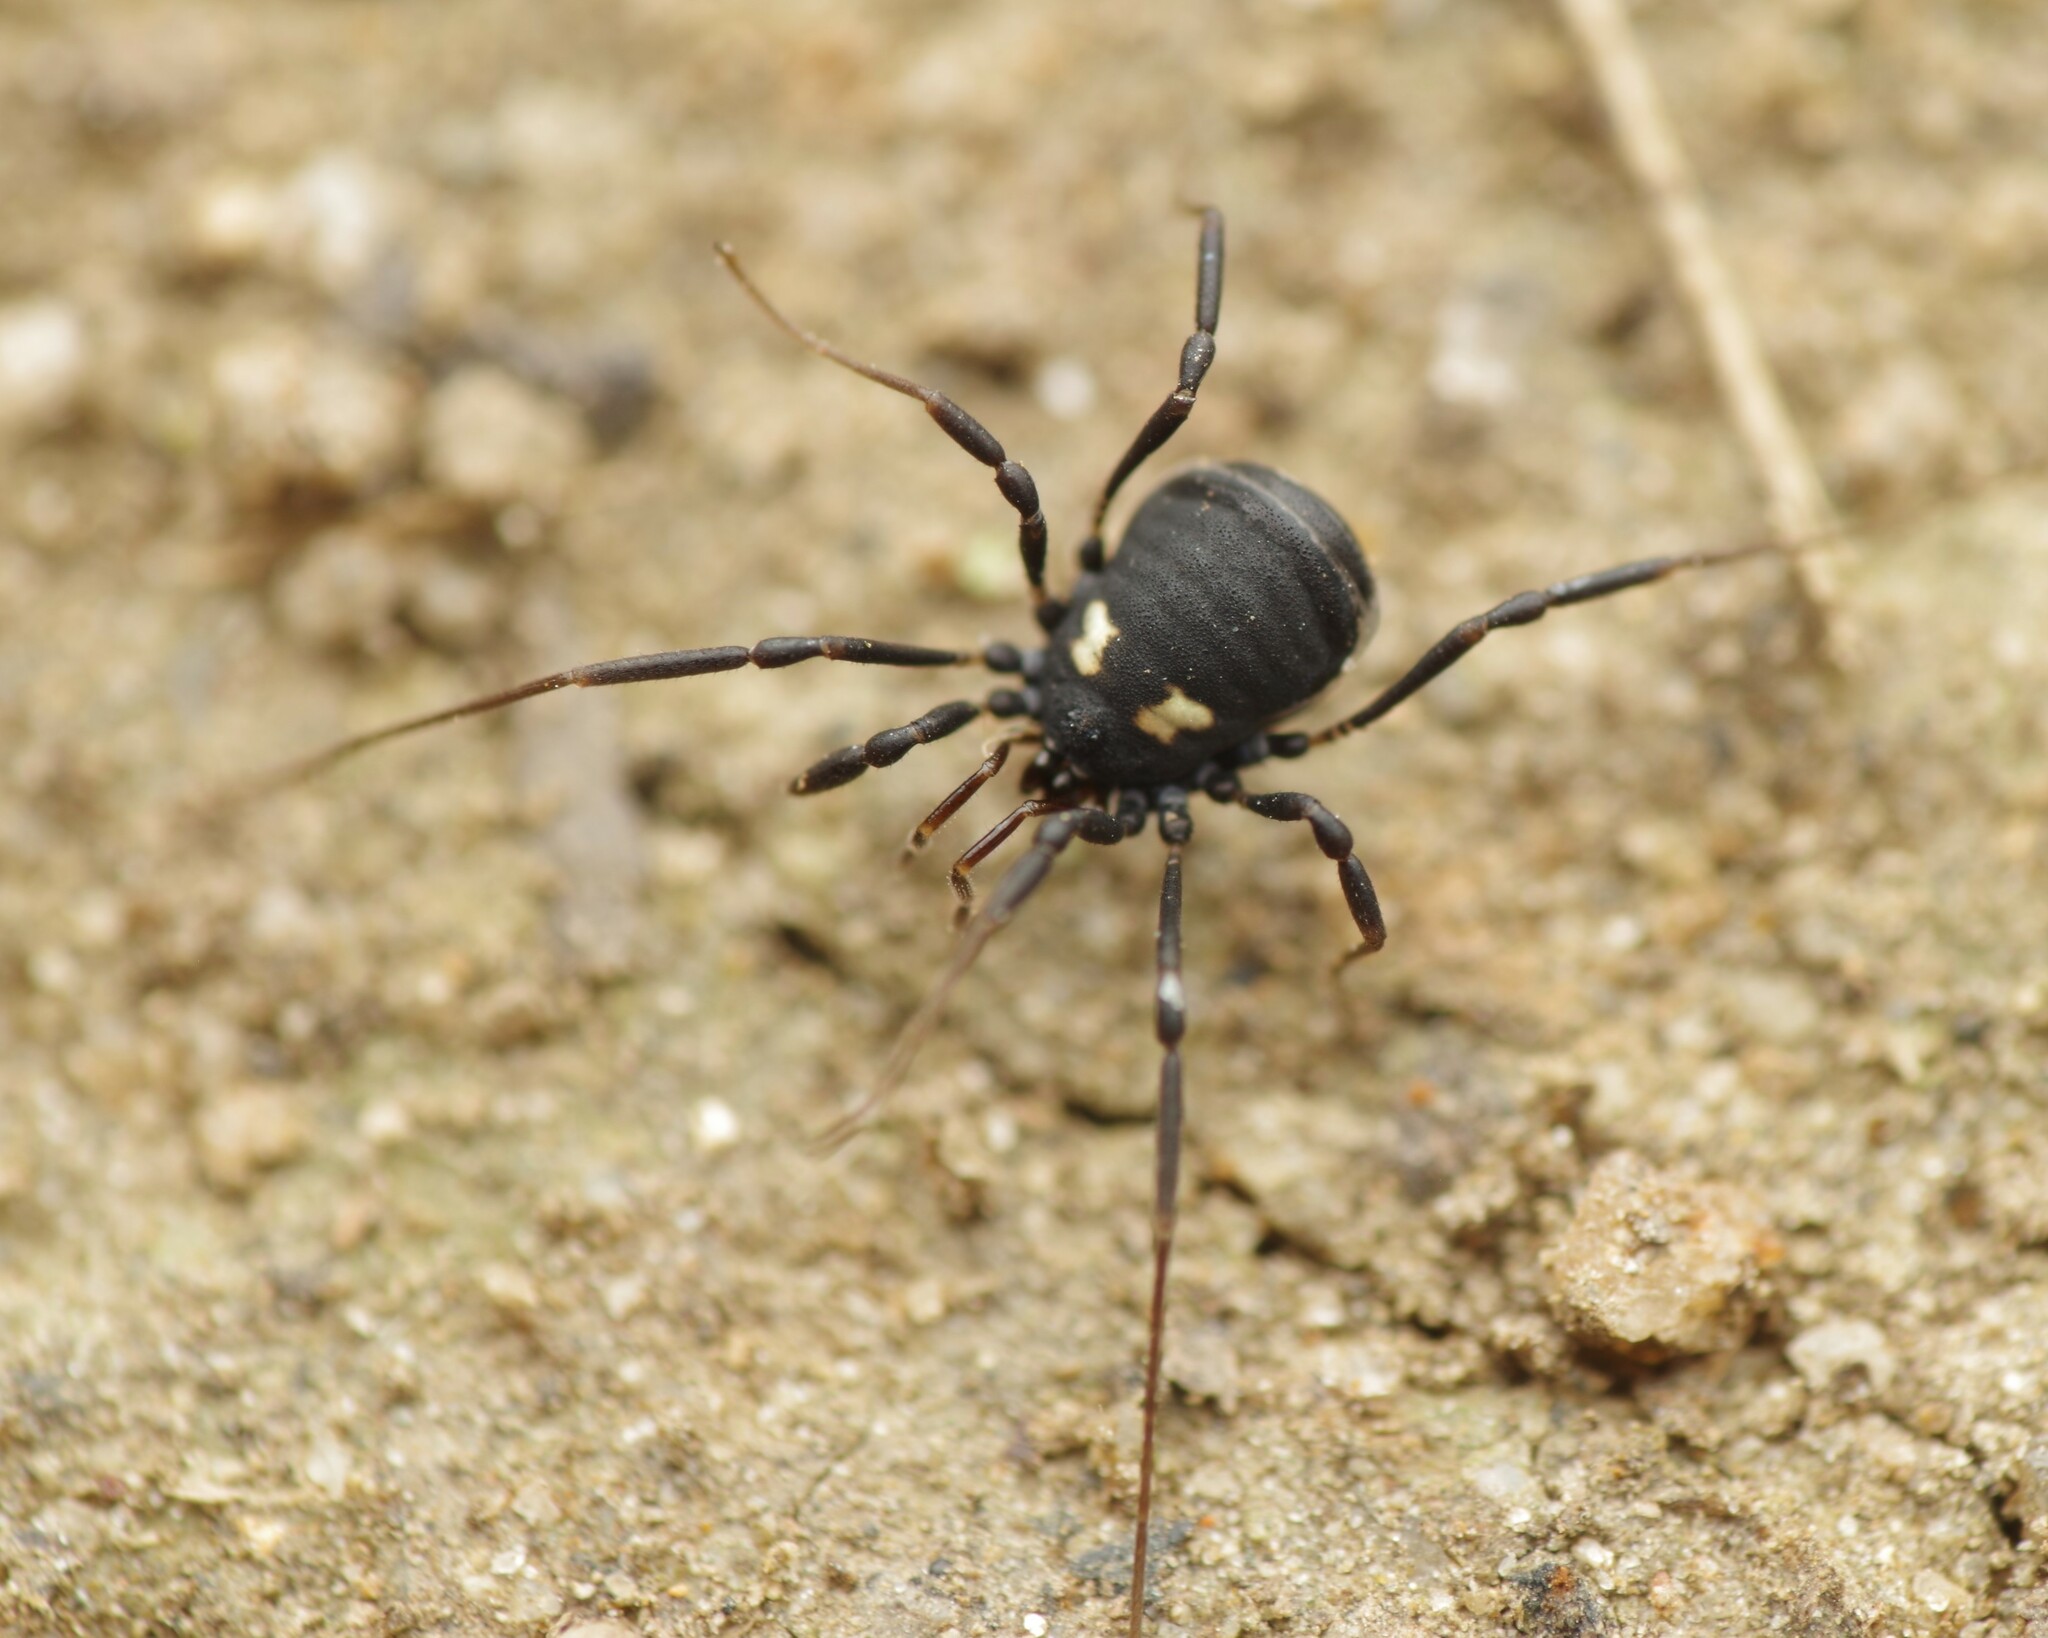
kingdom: Animalia
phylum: Arthropoda
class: Arachnida
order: Opiliones
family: Nemastomatidae
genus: Nemastoma
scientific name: Nemastoma bimaculatum
